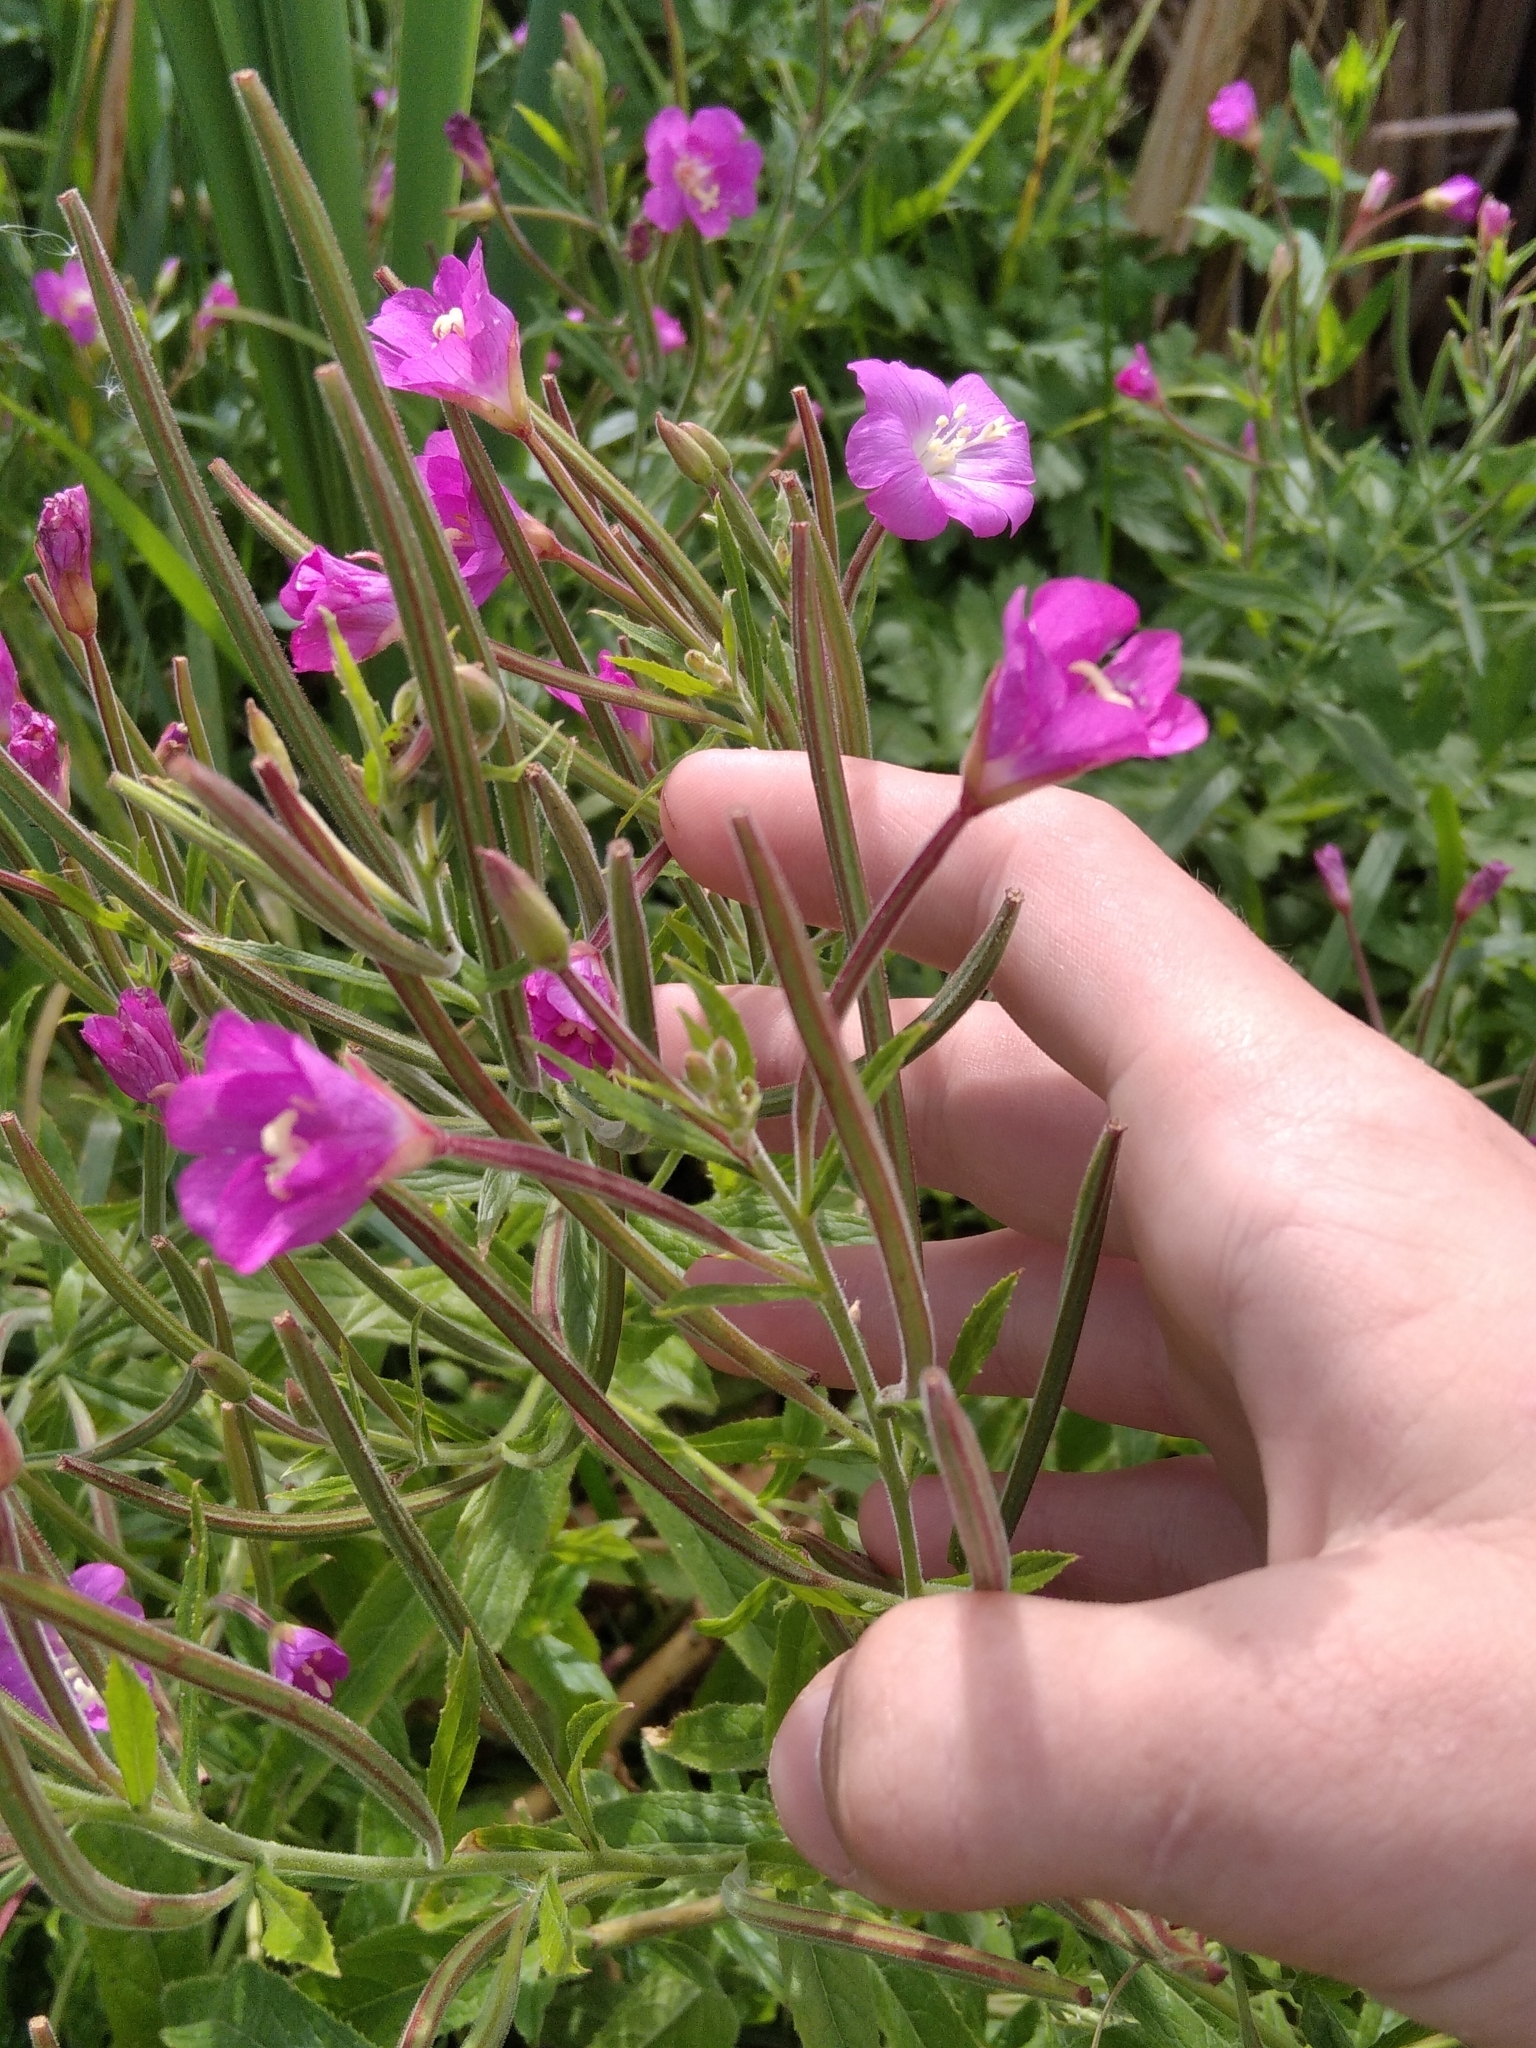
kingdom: Plantae
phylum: Tracheophyta
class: Magnoliopsida
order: Myrtales
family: Onagraceae
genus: Epilobium
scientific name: Epilobium hirsutum
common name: Great willowherb
